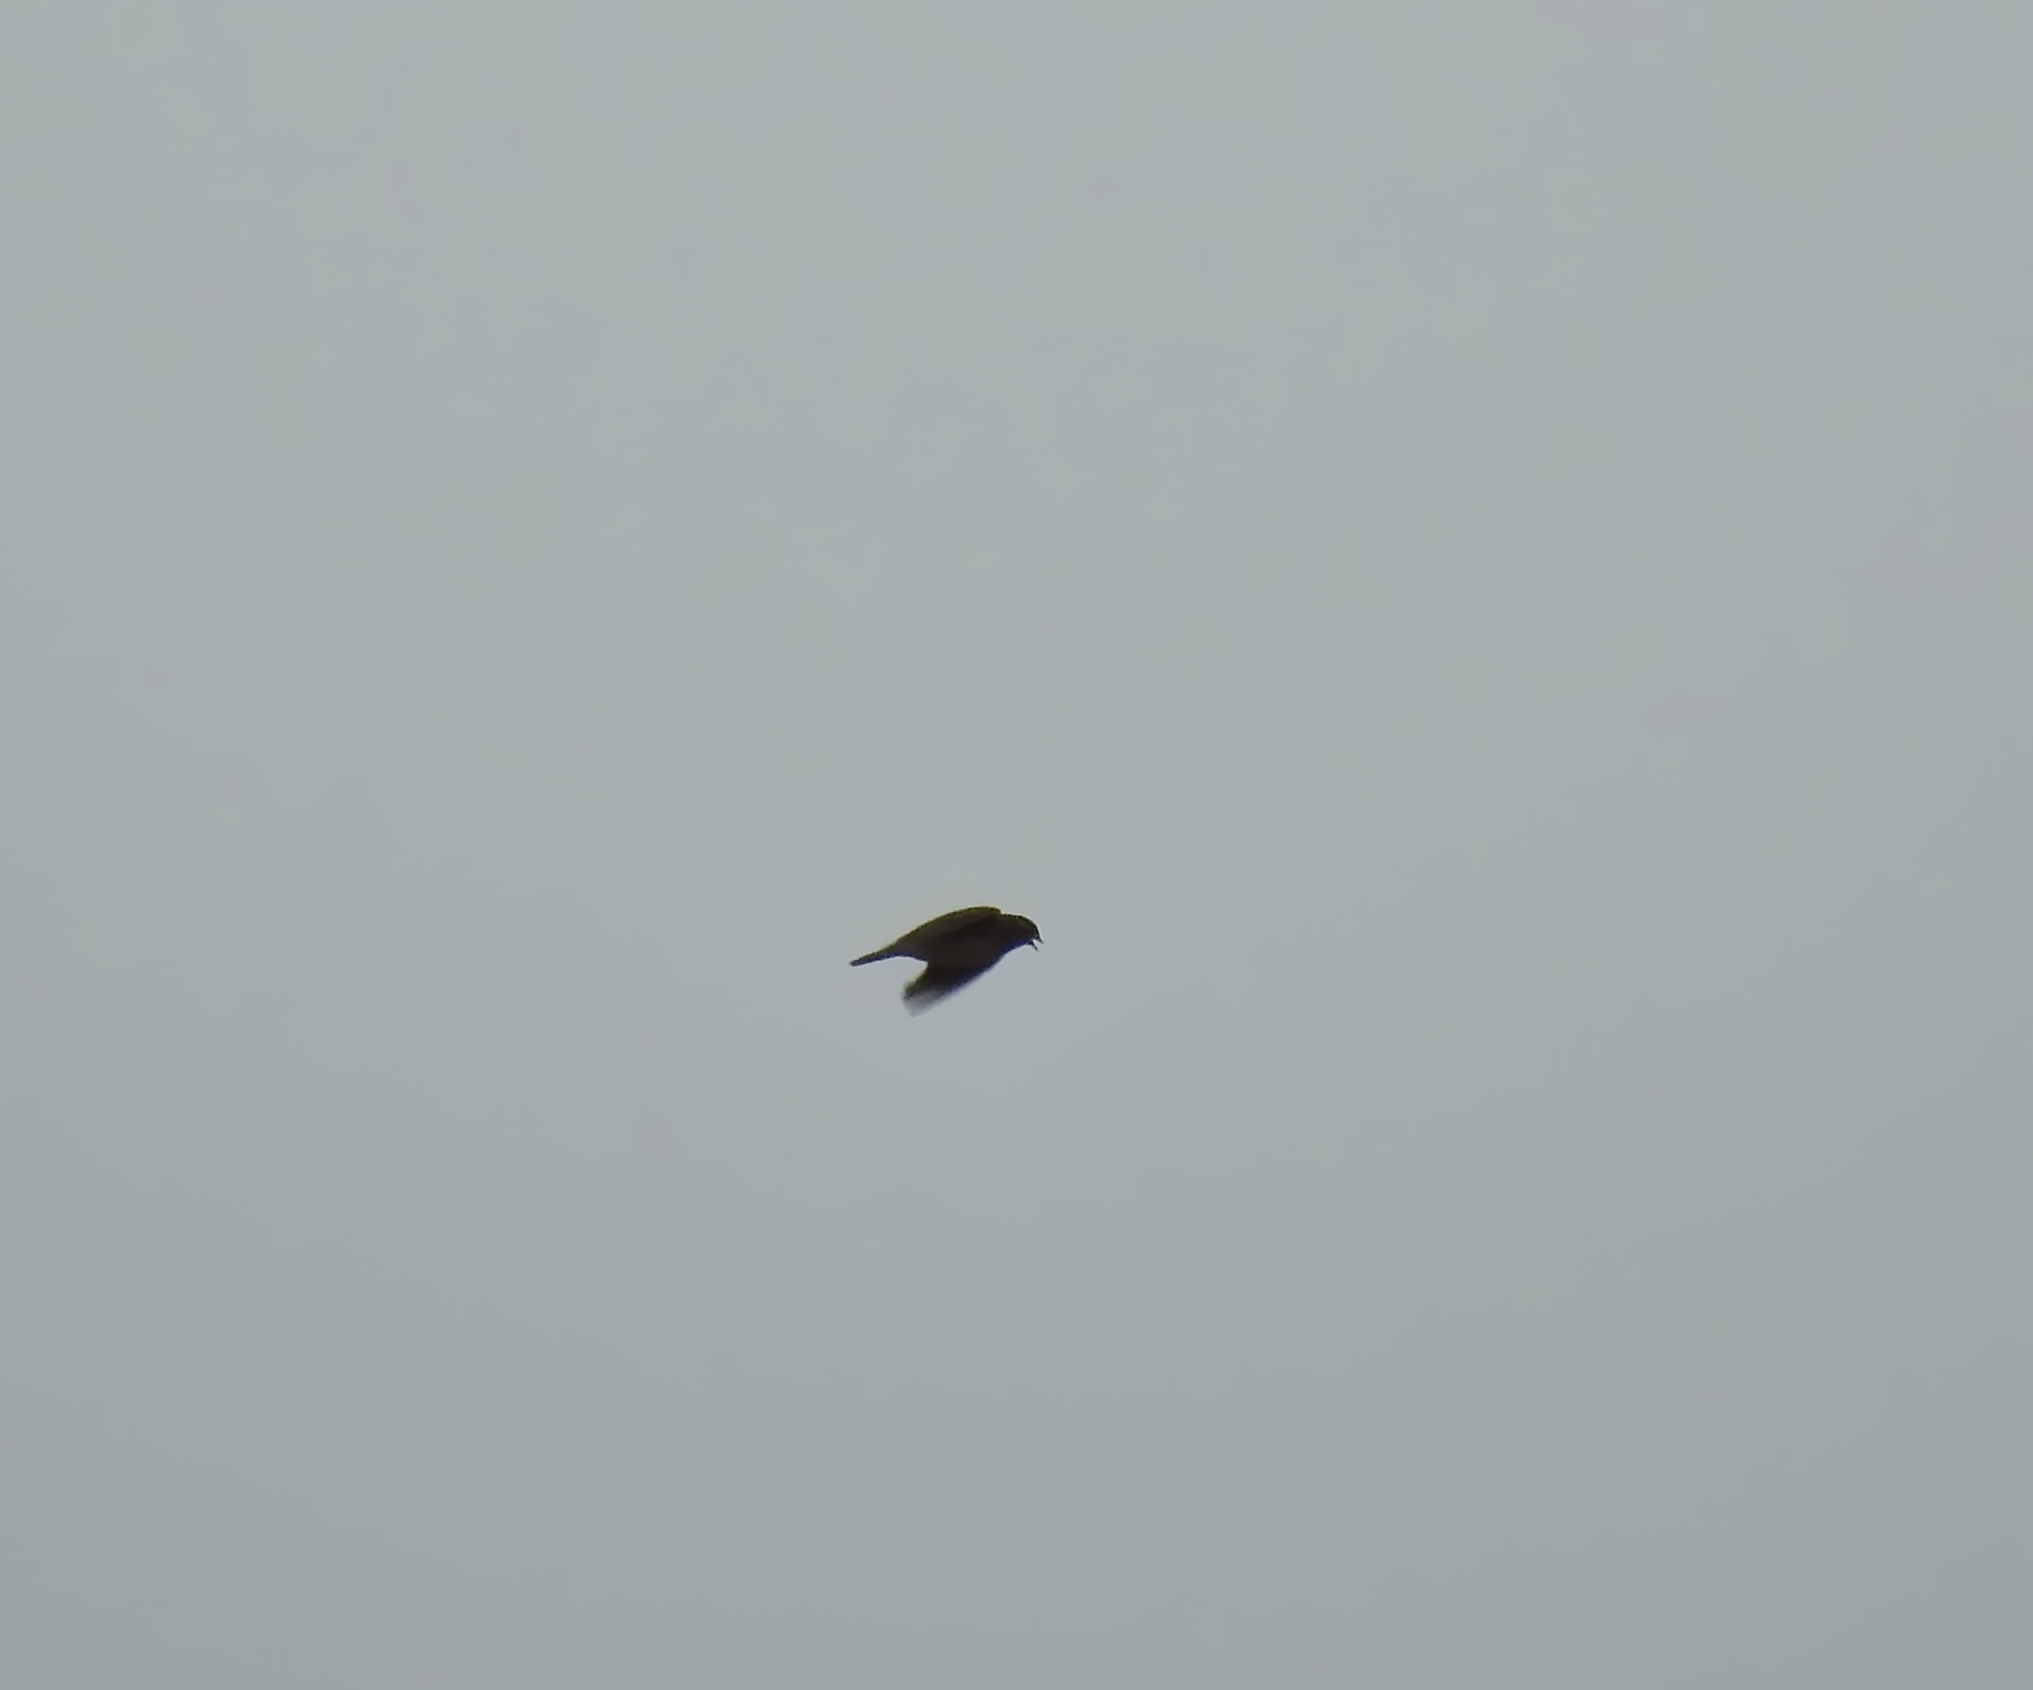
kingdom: Animalia
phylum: Chordata
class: Aves
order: Passeriformes
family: Alaudidae
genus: Alauda
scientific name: Alauda arvensis
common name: Eurasian skylark
